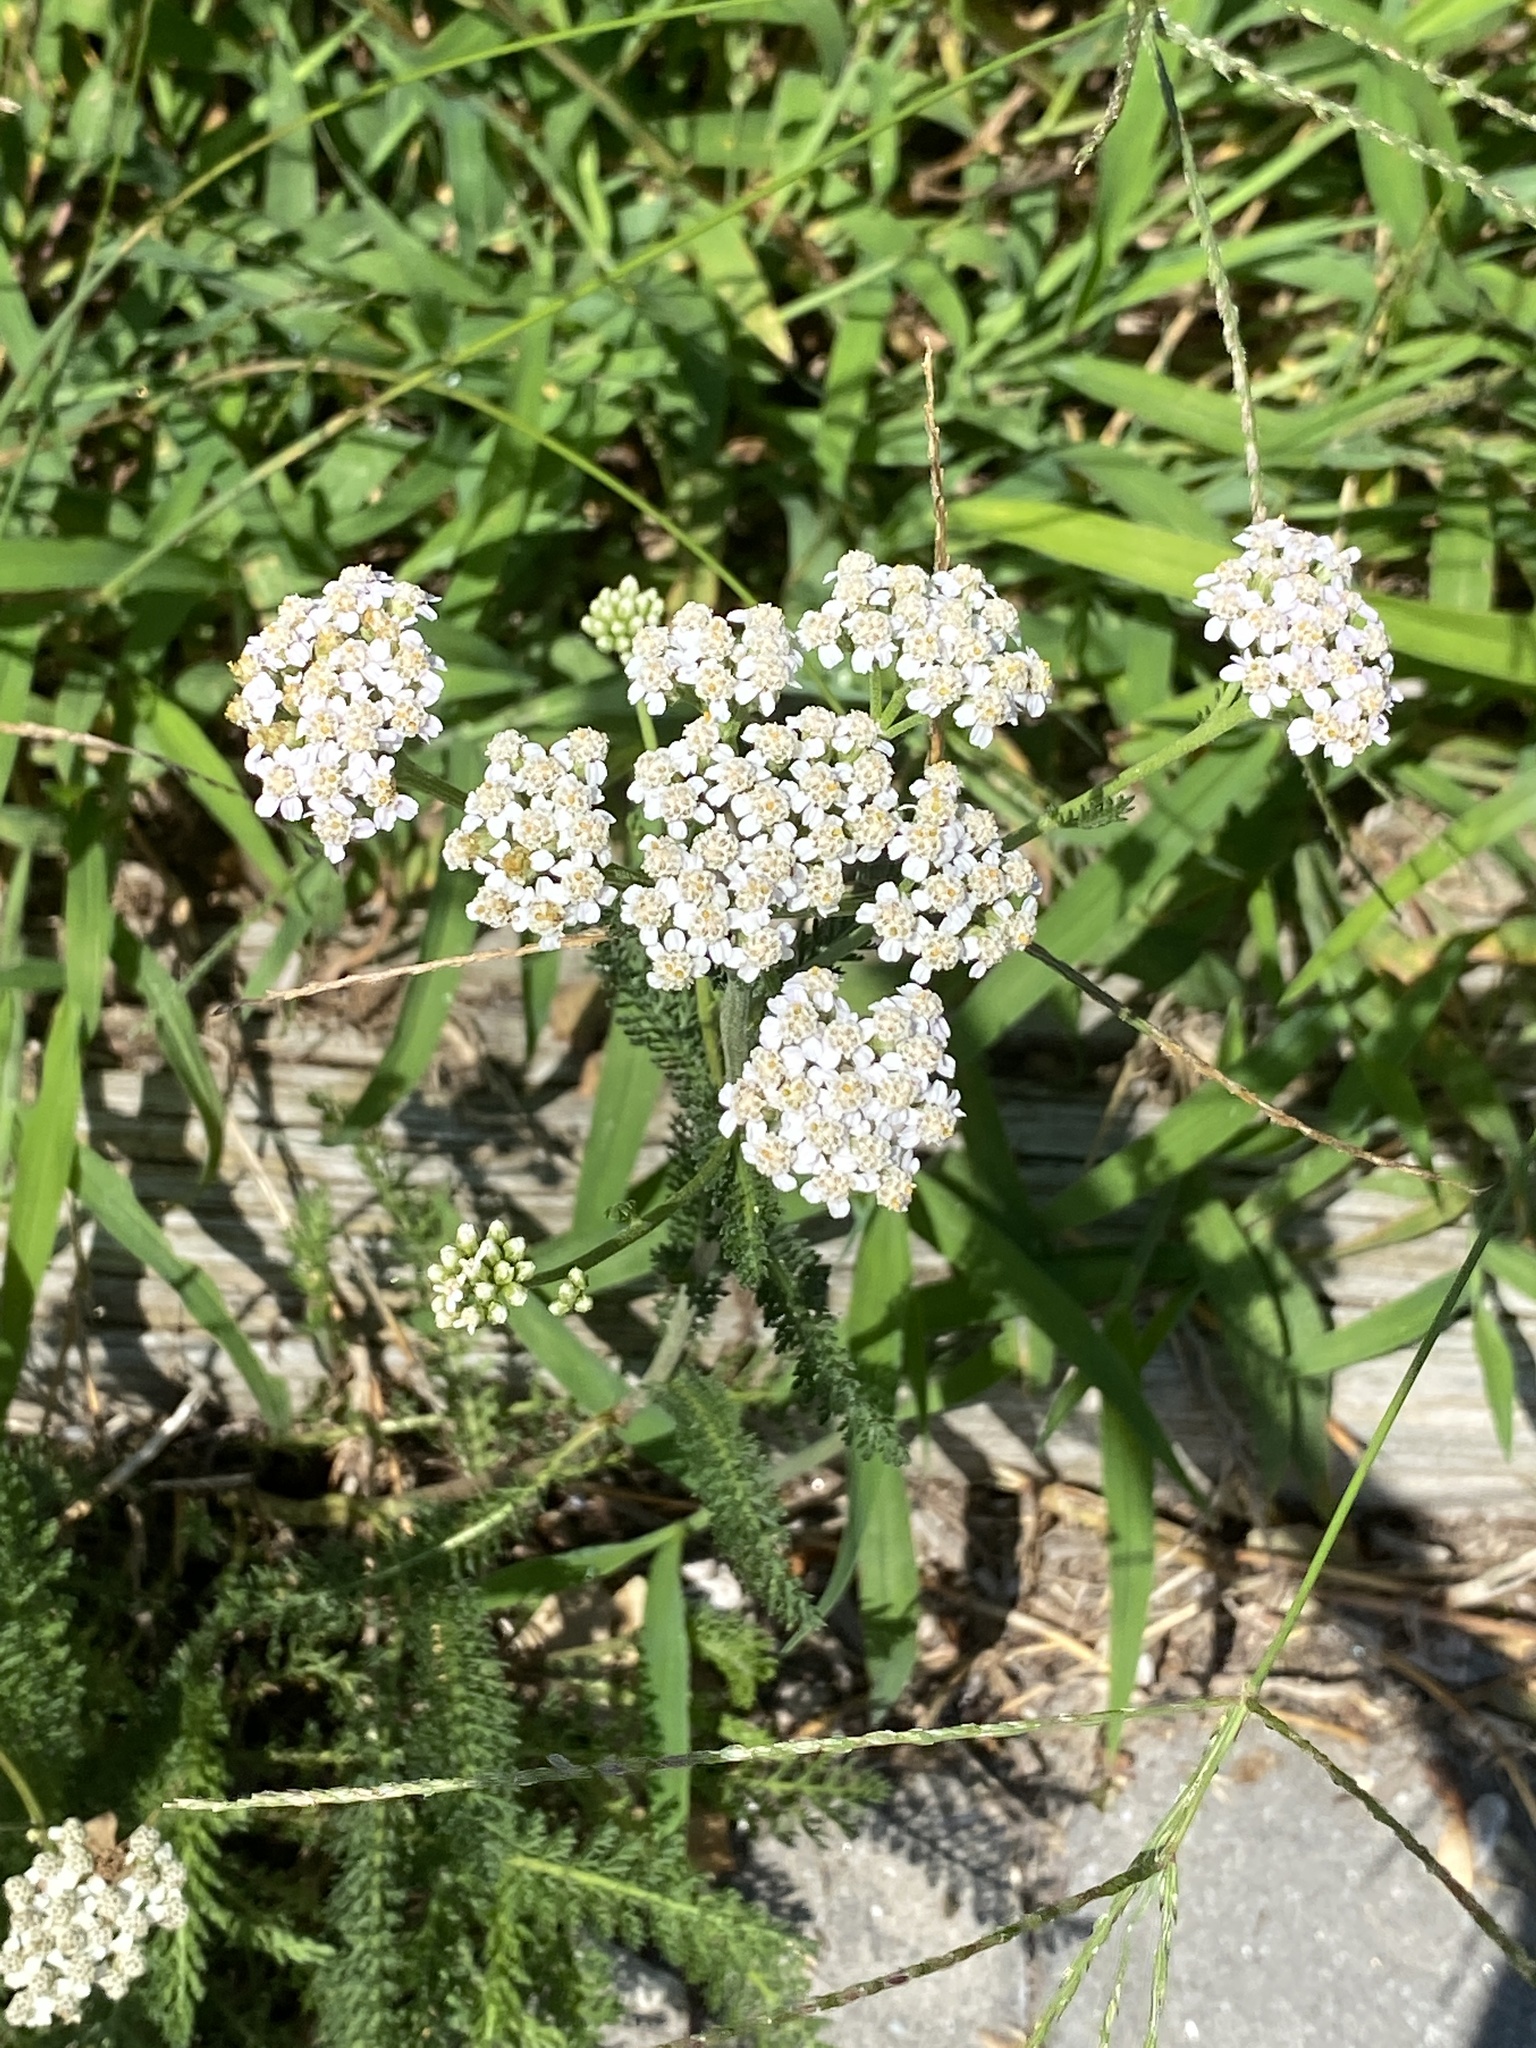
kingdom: Plantae
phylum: Tracheophyta
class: Magnoliopsida
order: Asterales
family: Asteraceae
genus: Achillea
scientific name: Achillea millefolium
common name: Yarrow
